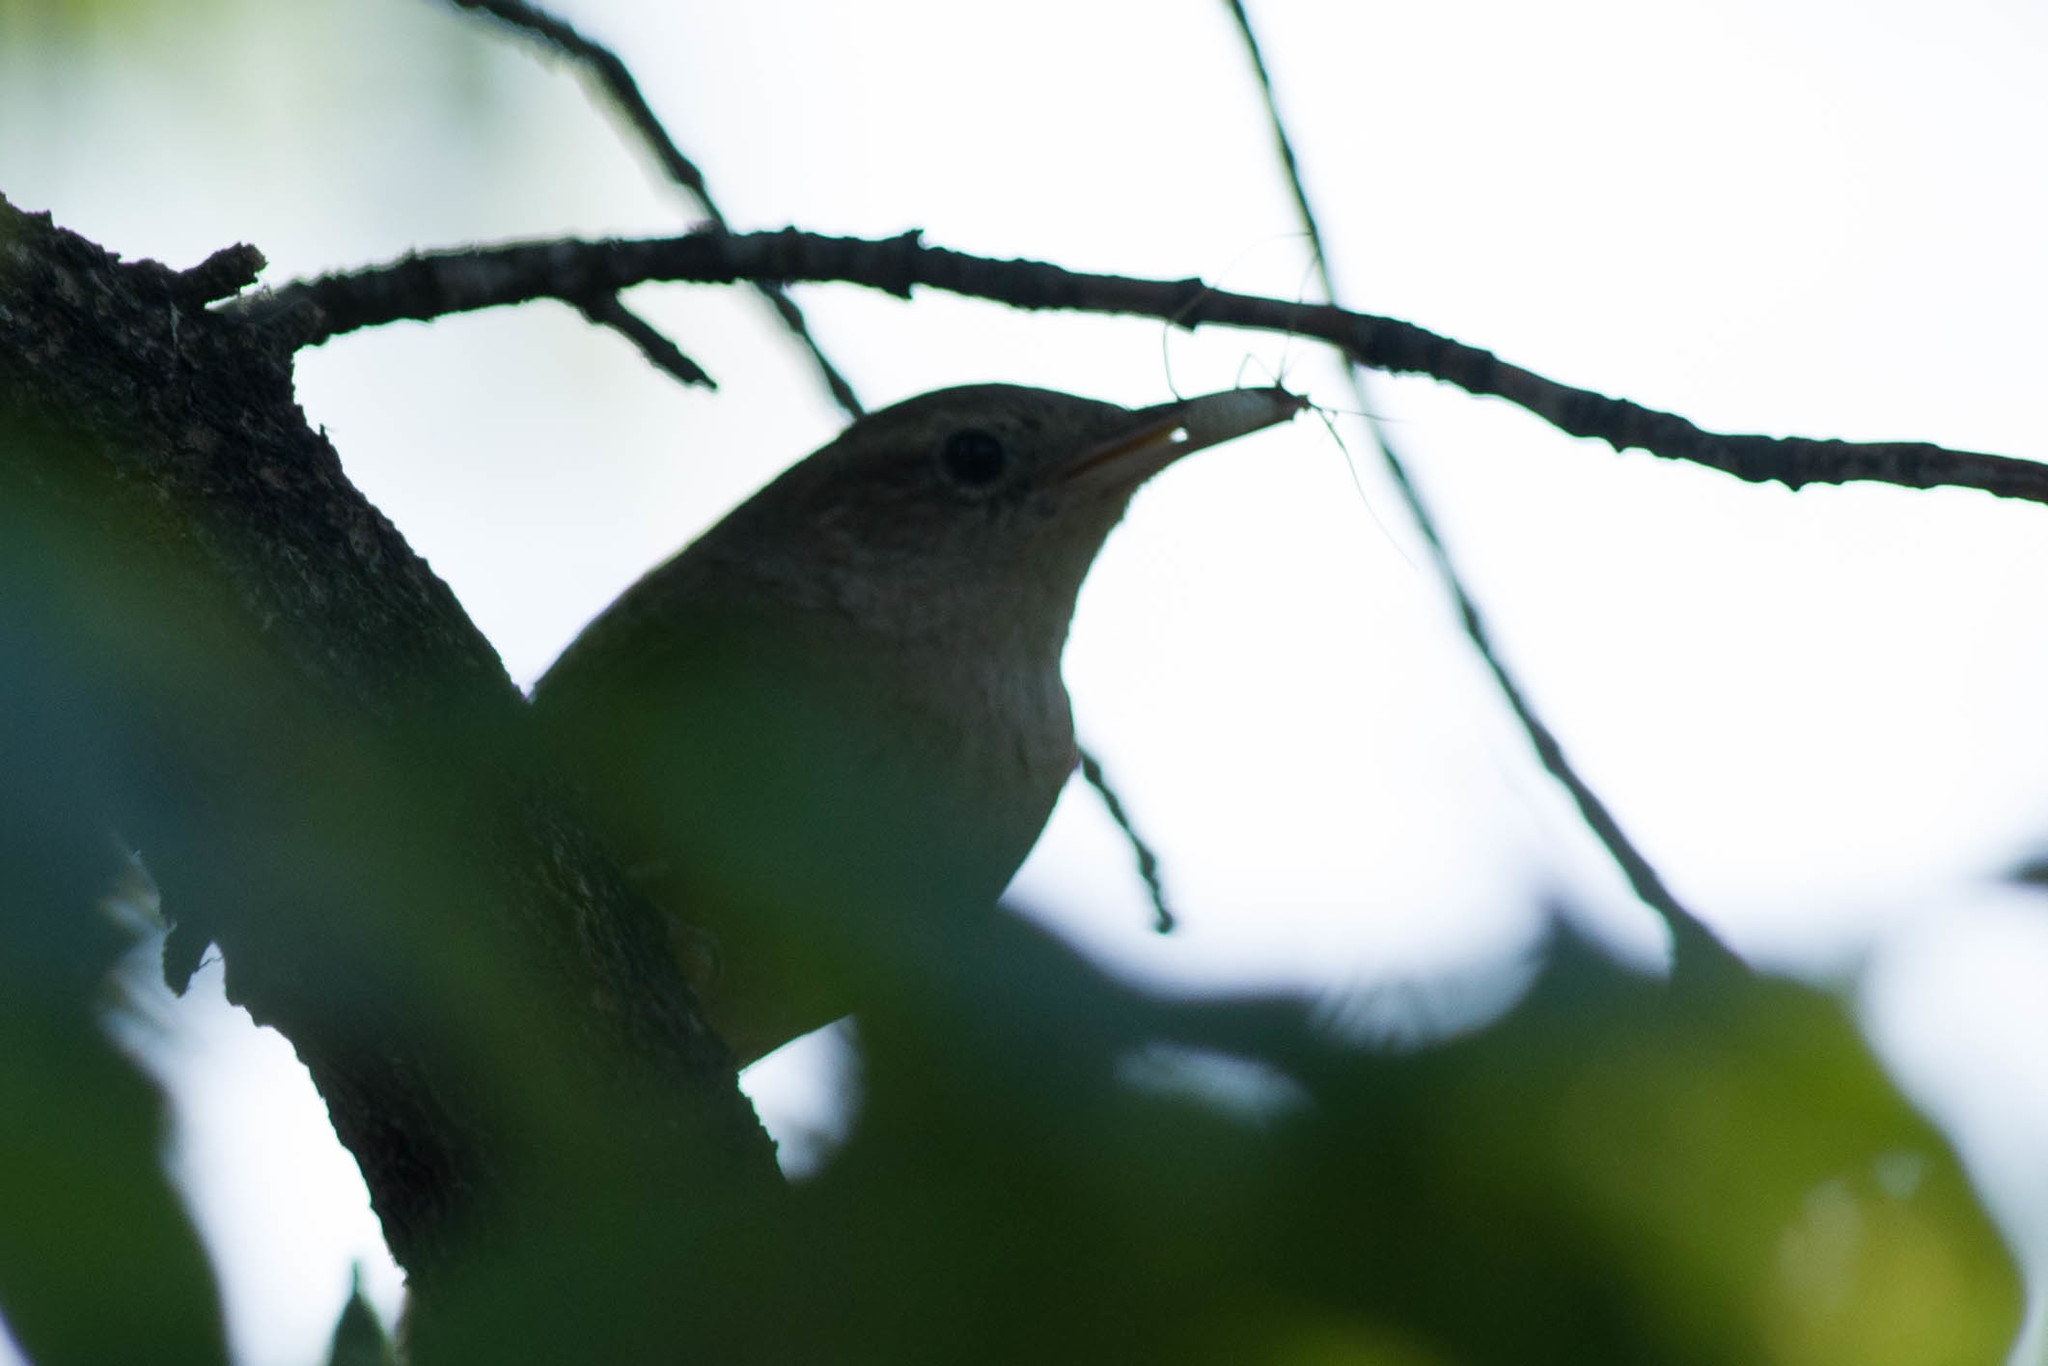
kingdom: Animalia
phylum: Chordata
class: Aves
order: Passeriformes
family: Troglodytidae
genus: Troglodytes
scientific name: Troglodytes aedon
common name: House wren
